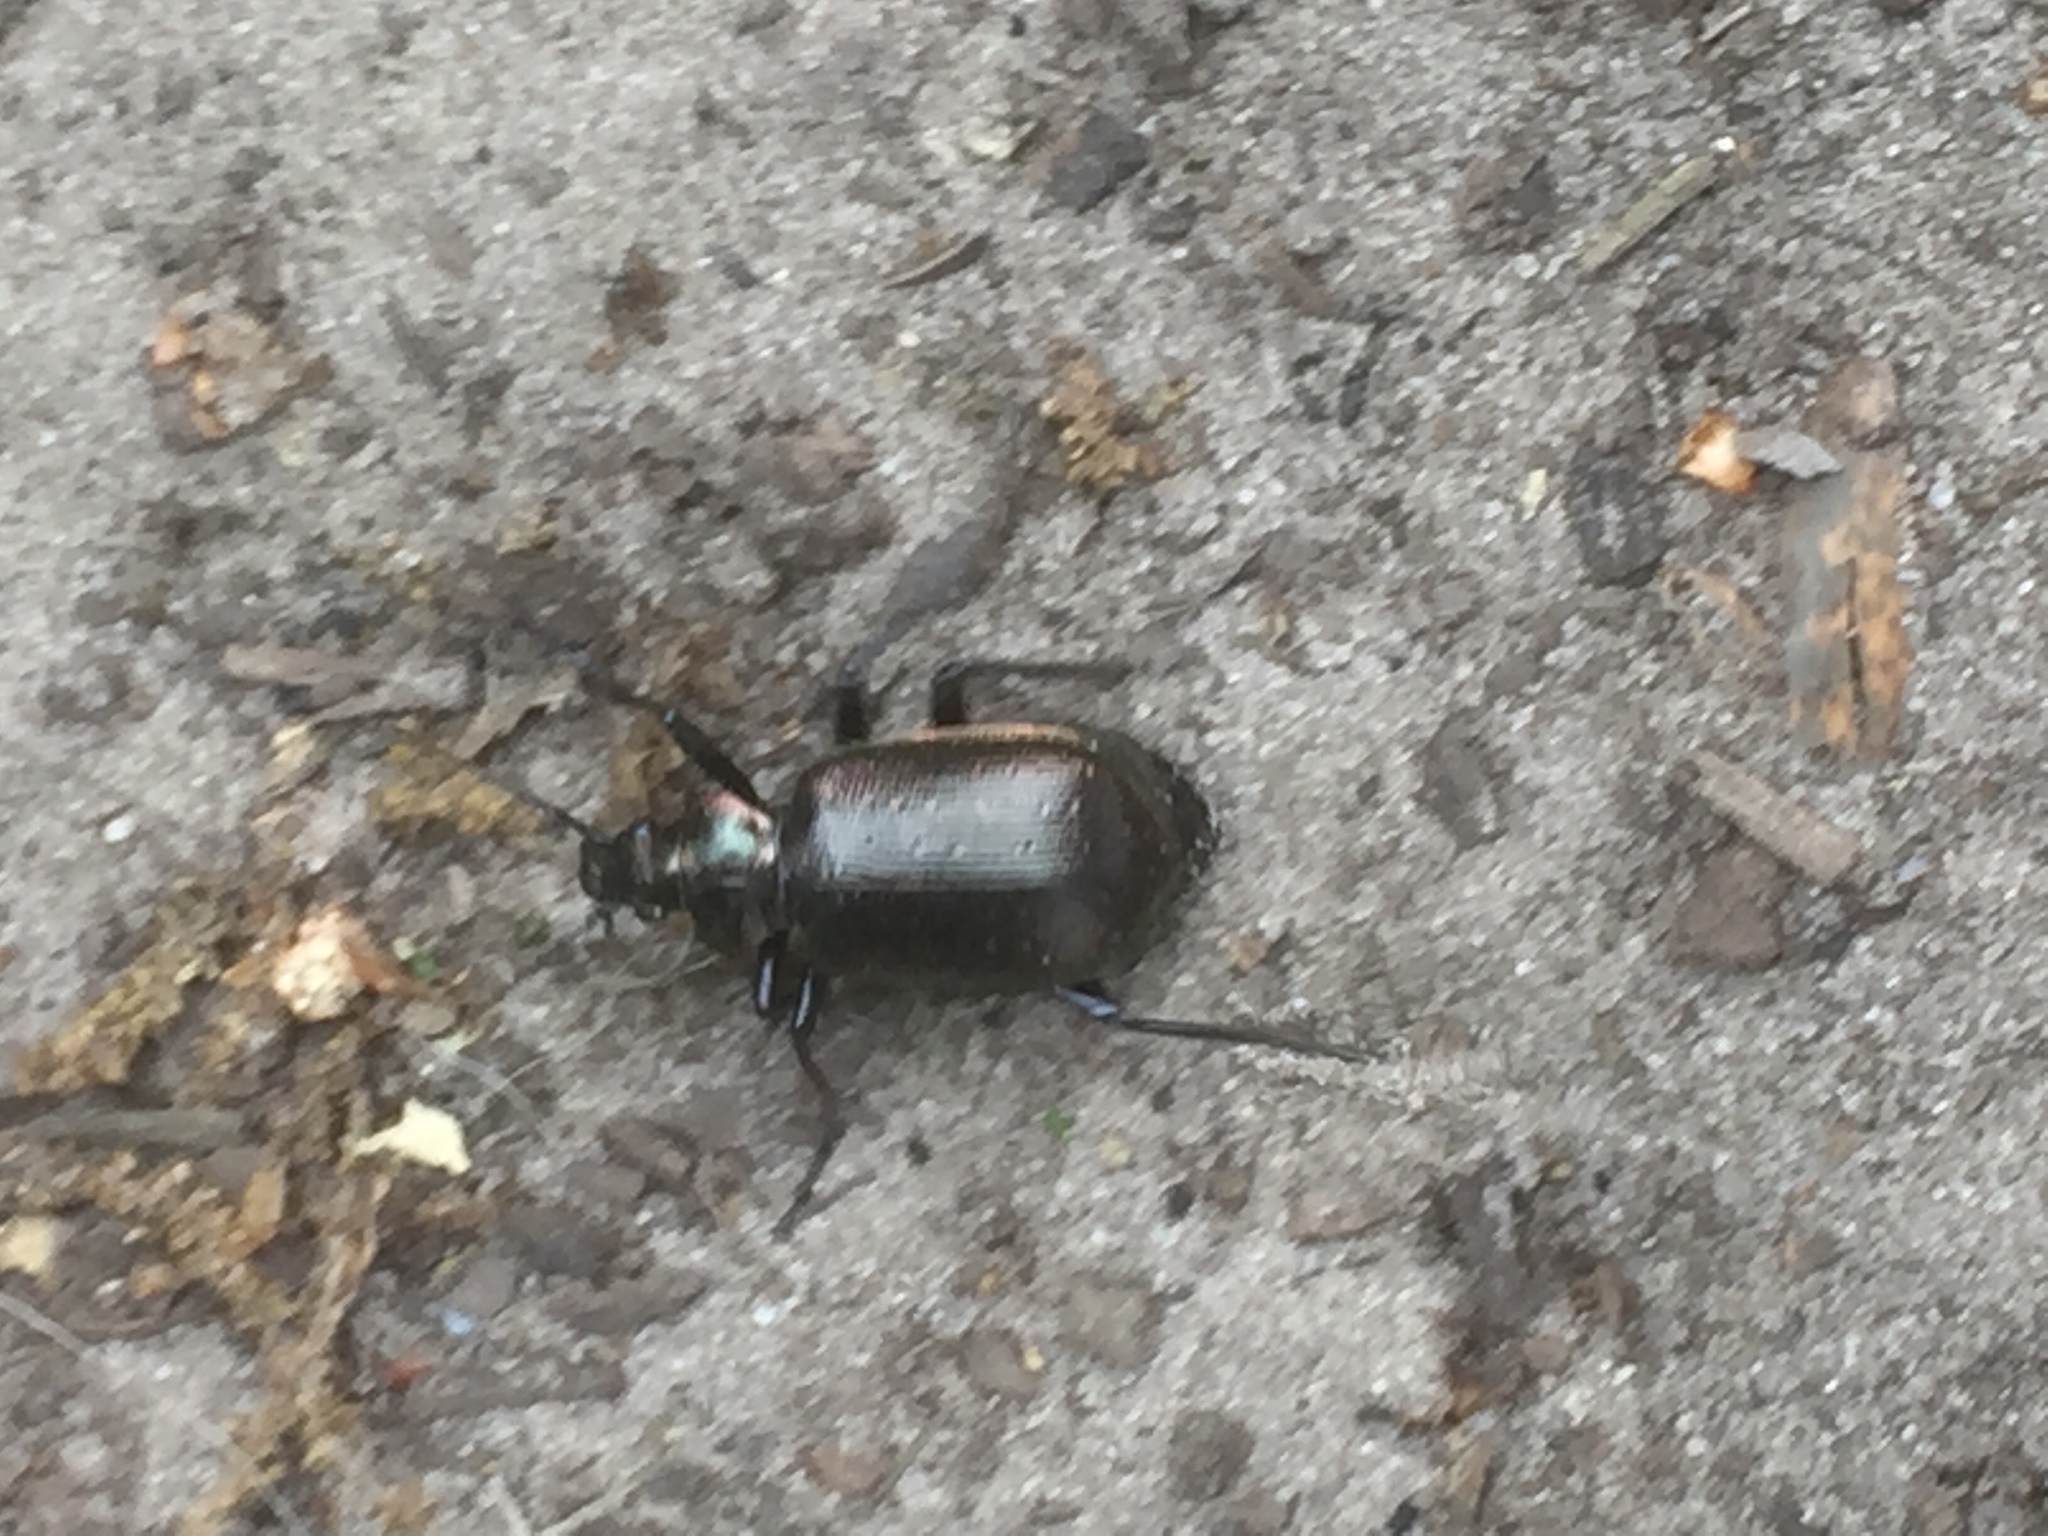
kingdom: Animalia
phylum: Arthropoda
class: Insecta
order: Coleoptera
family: Carabidae
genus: Calosoma
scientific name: Calosoma inquisitor
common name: Caterpillar-hunter
